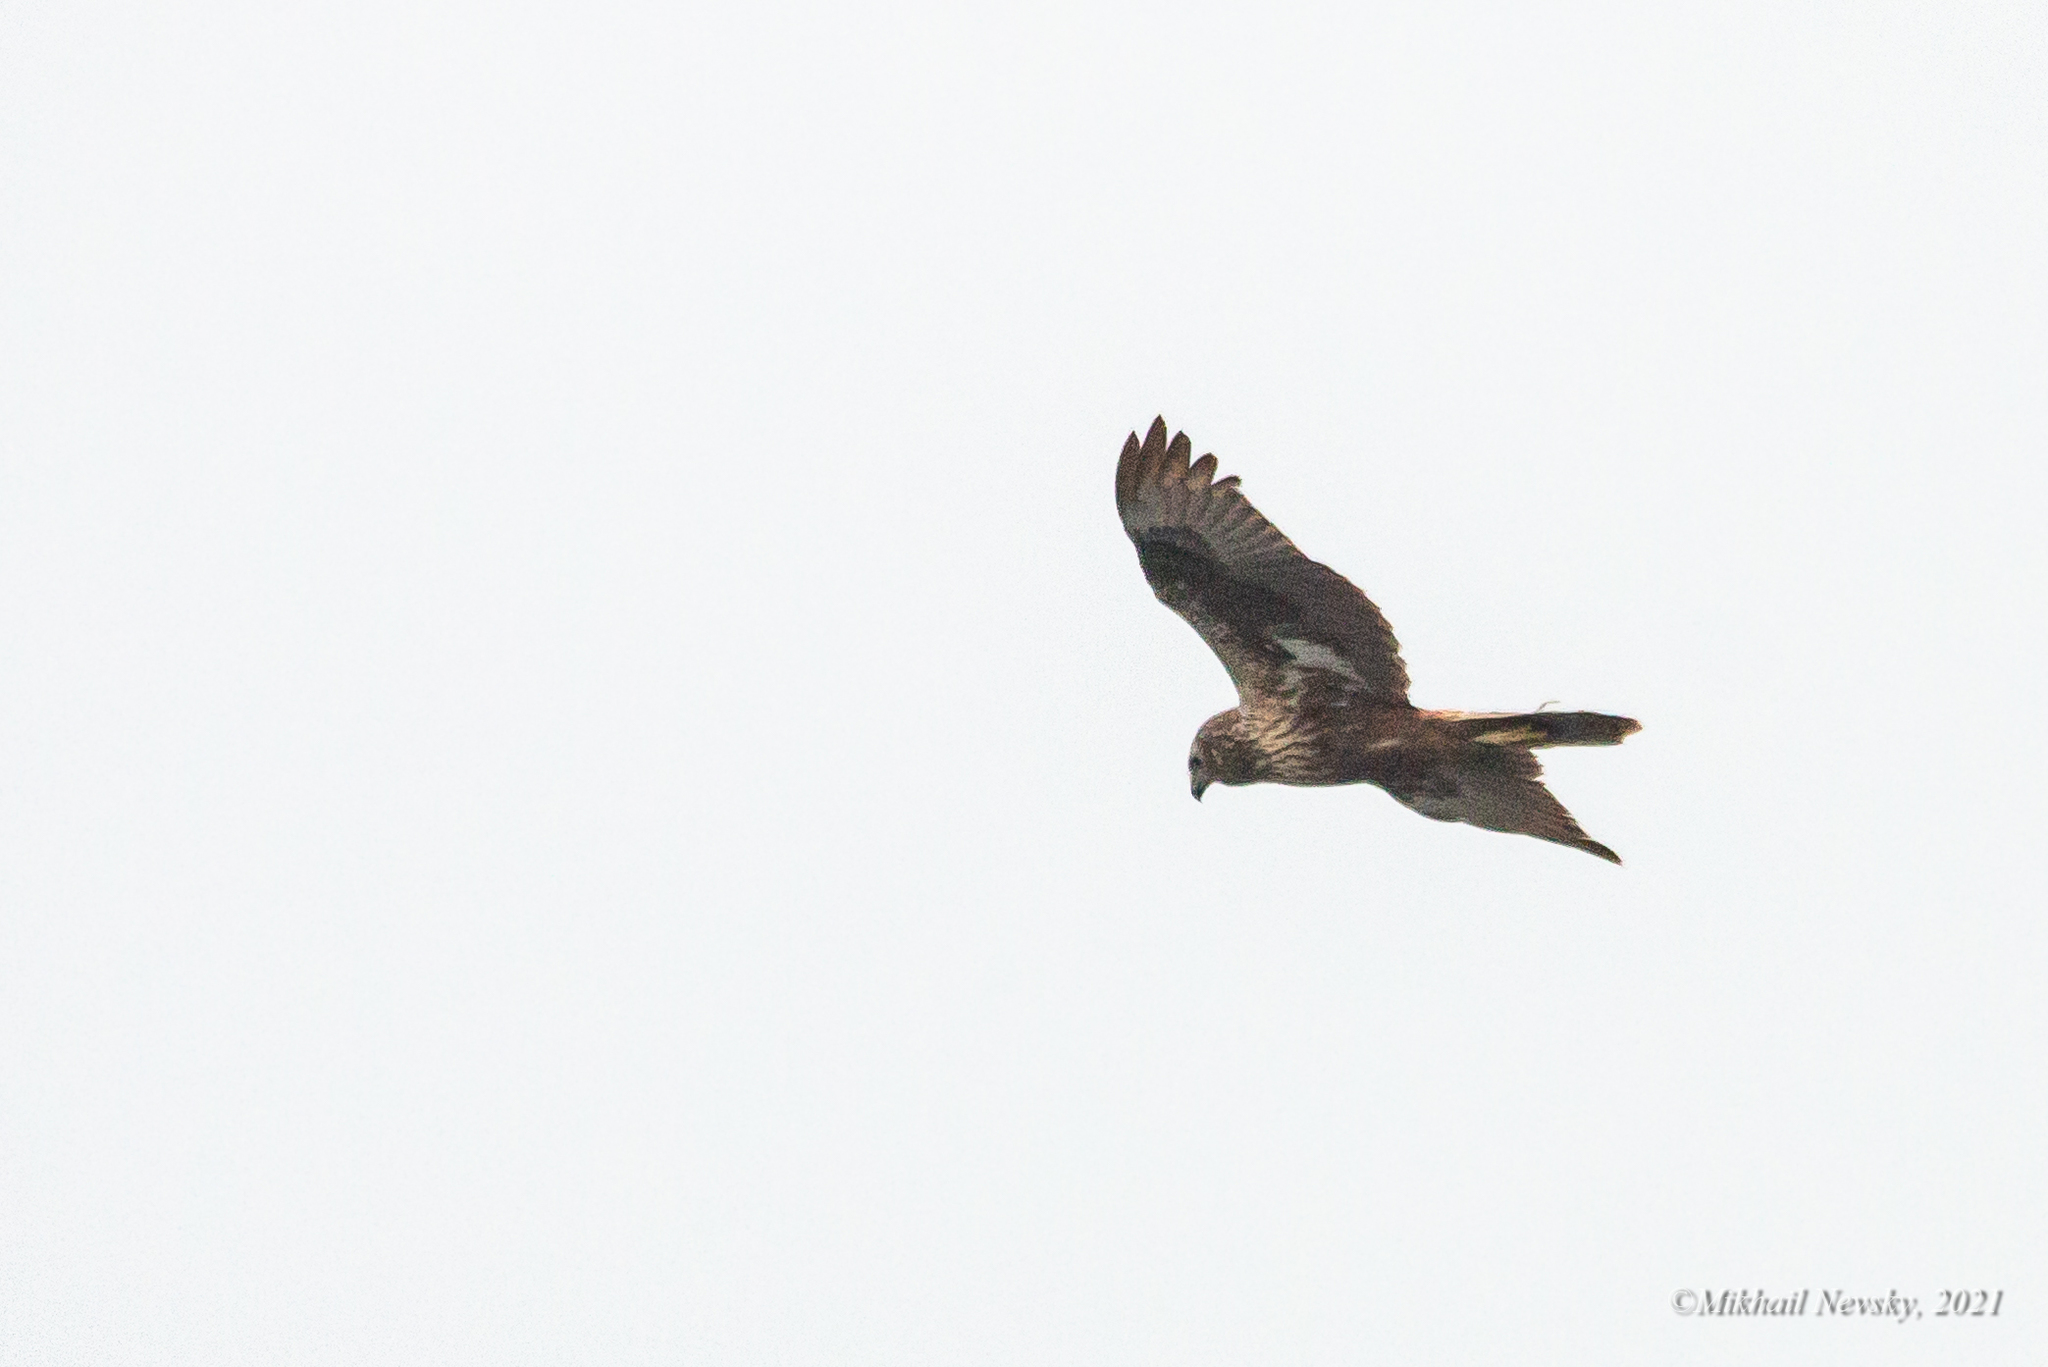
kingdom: Animalia
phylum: Chordata
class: Aves
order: Accipitriformes
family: Accipitridae
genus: Circus
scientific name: Circus spilonotus
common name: Eastern marsh-harrier
